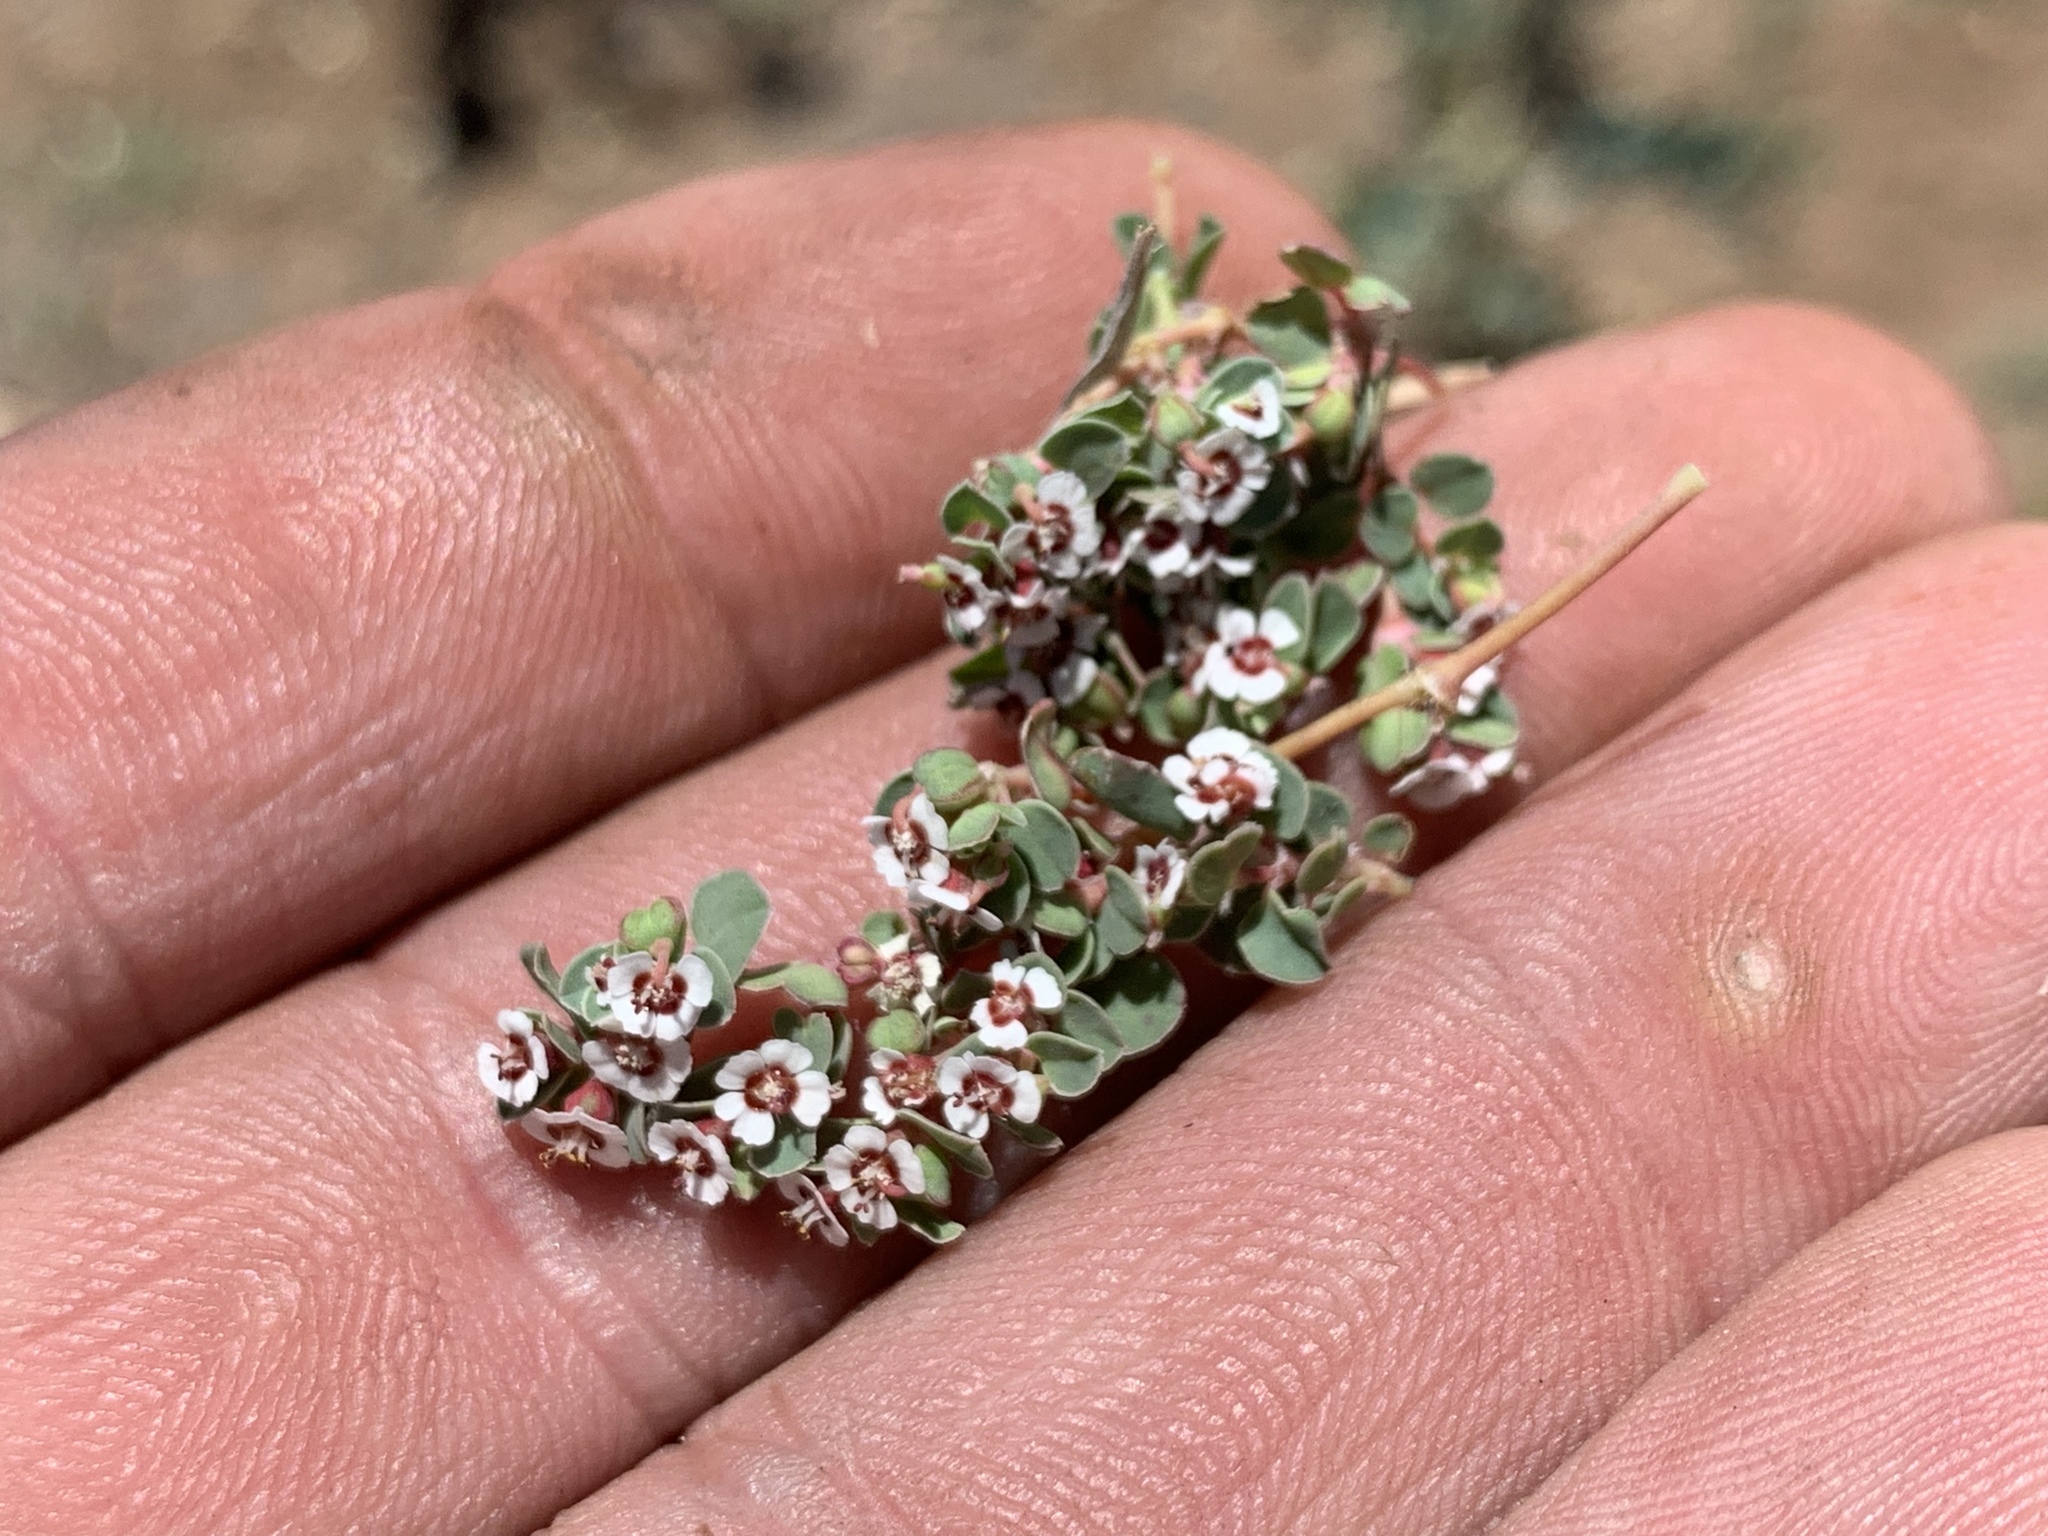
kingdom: Plantae
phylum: Tracheophyta
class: Magnoliopsida
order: Malpighiales
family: Euphorbiaceae
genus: Euphorbia
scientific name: Euphorbia albomarginata
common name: Whitemargin sandmat
